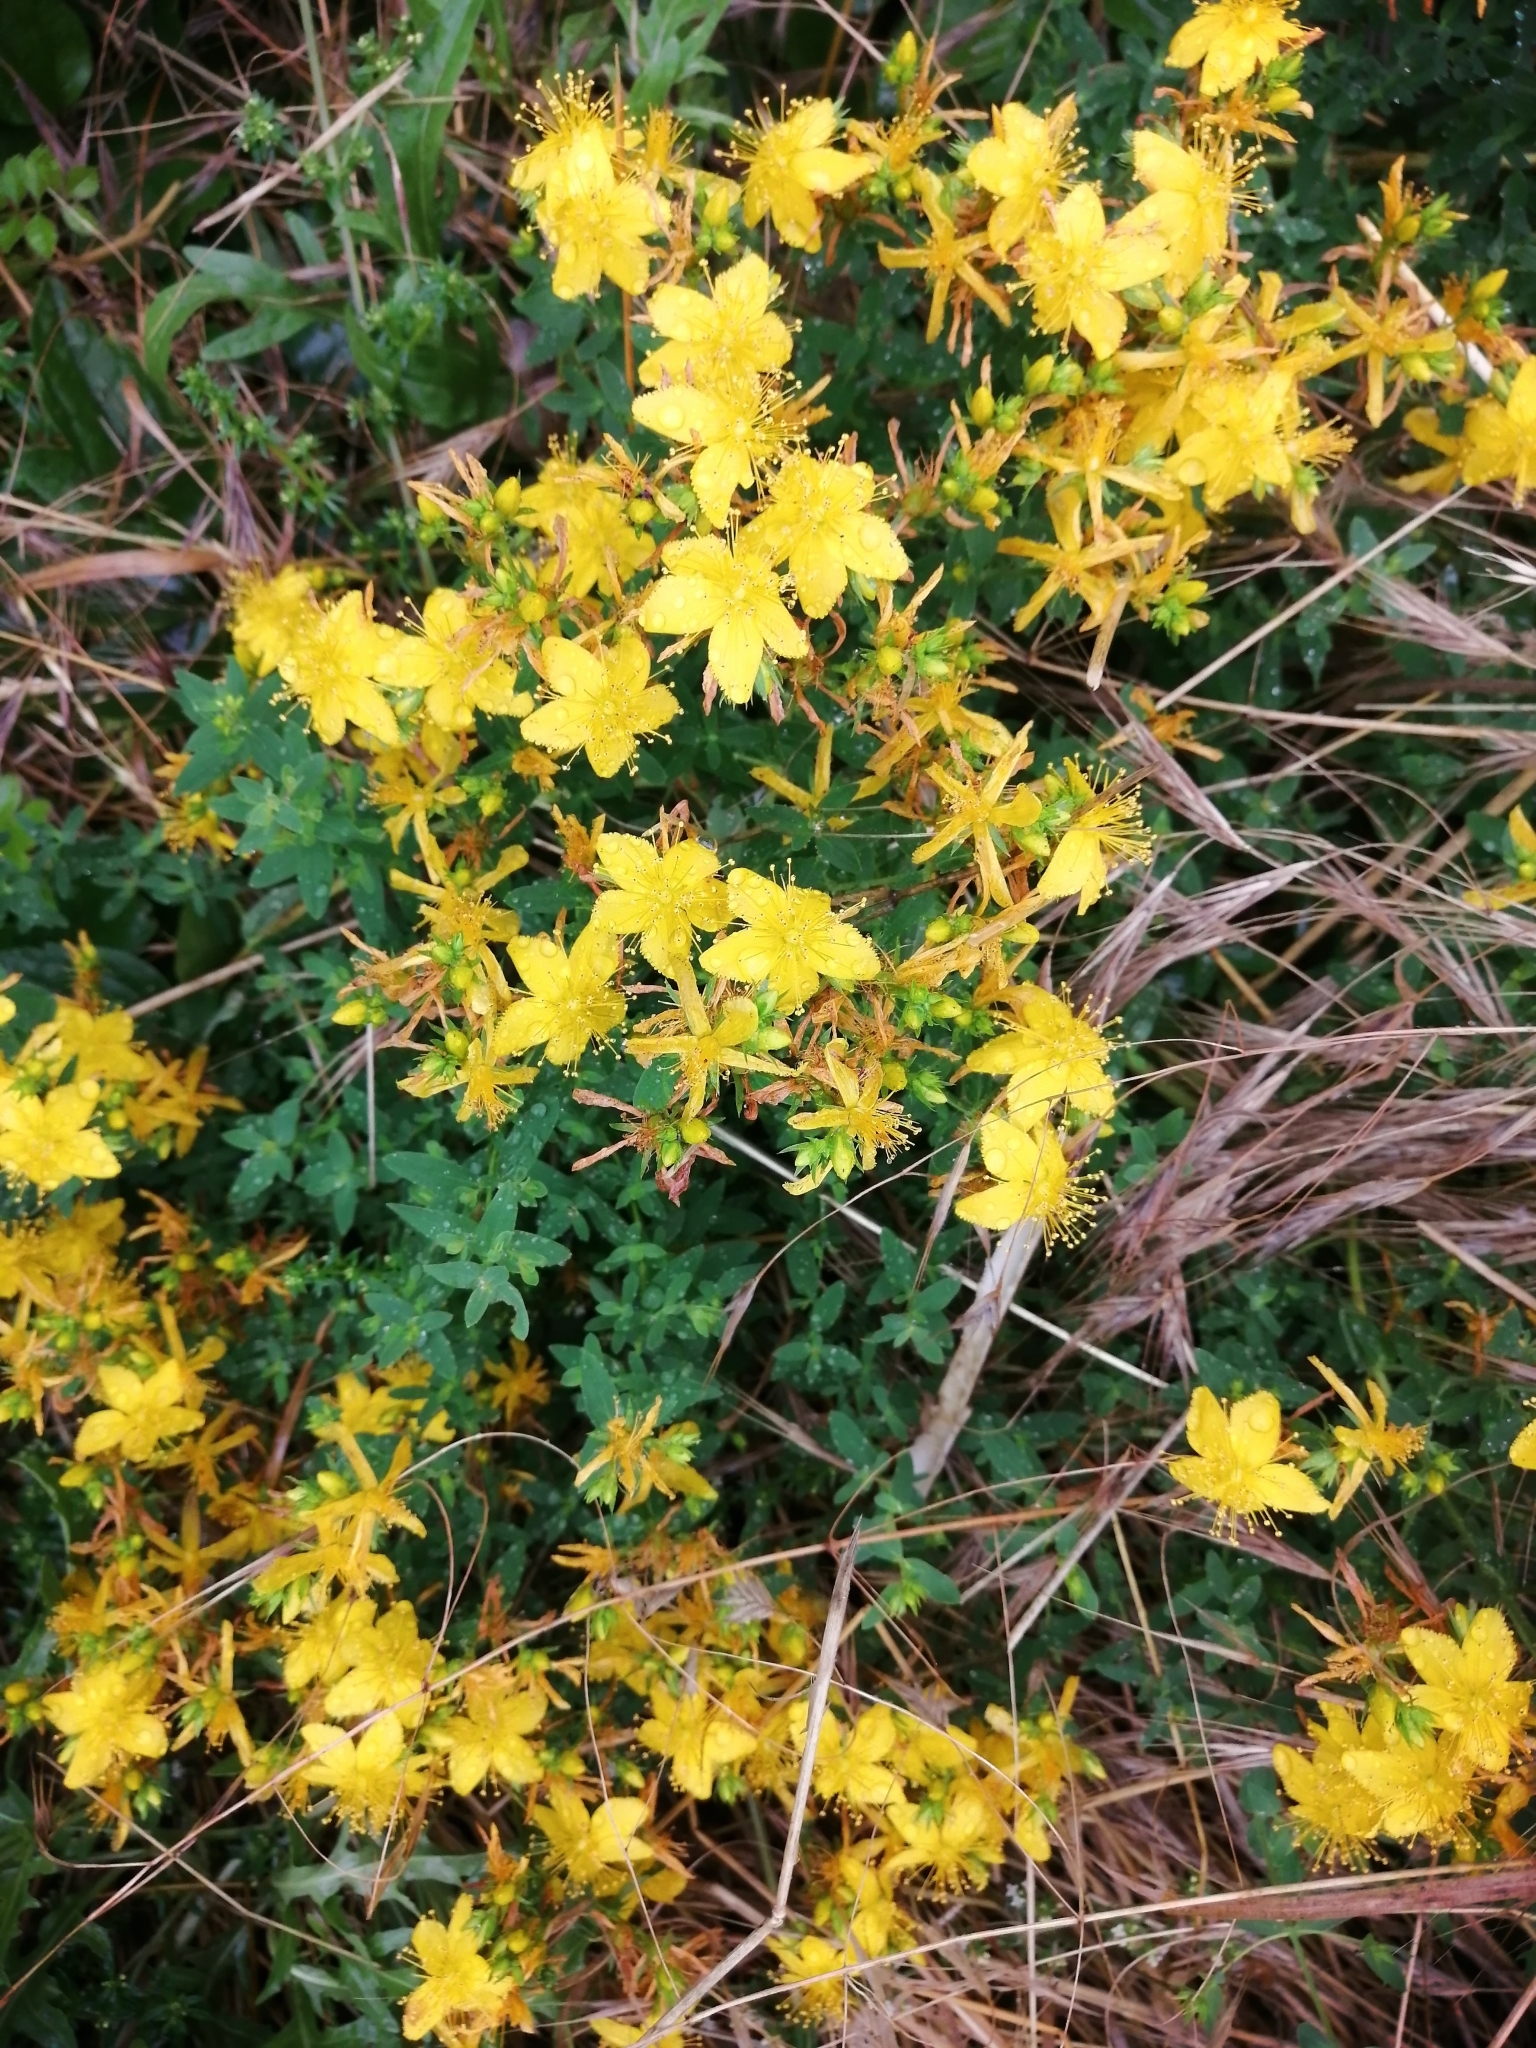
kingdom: Plantae
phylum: Tracheophyta
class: Magnoliopsida
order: Malpighiales
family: Hypericaceae
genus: Hypericum
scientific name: Hypericum perforatum
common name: Common st. johnswort
